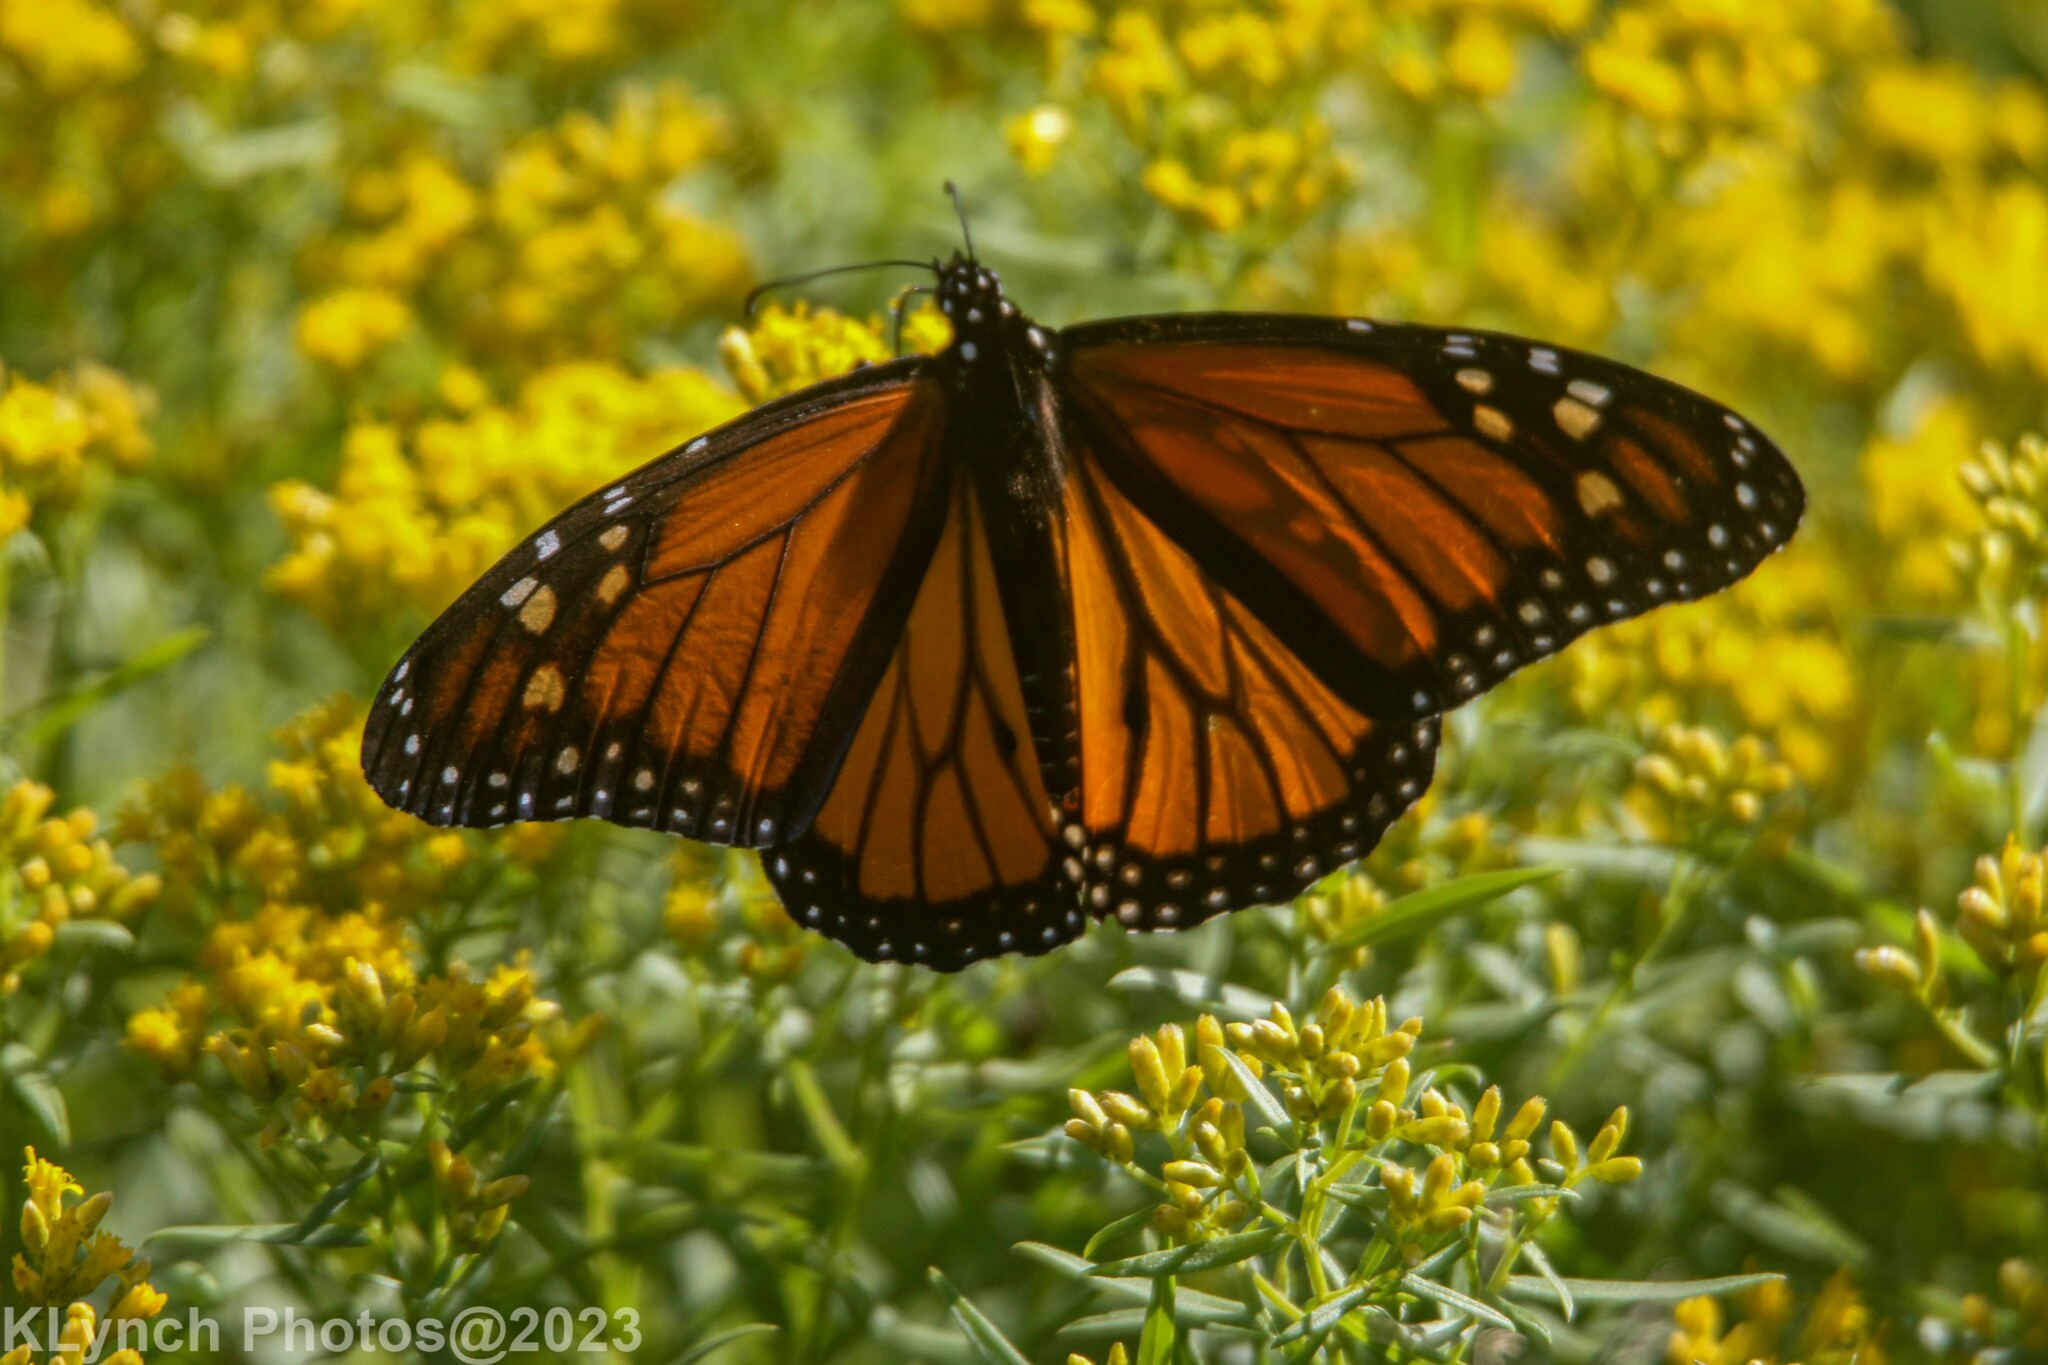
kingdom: Animalia
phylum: Arthropoda
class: Insecta
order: Lepidoptera
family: Nymphalidae
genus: Danaus
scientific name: Danaus plexippus
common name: Monarch
